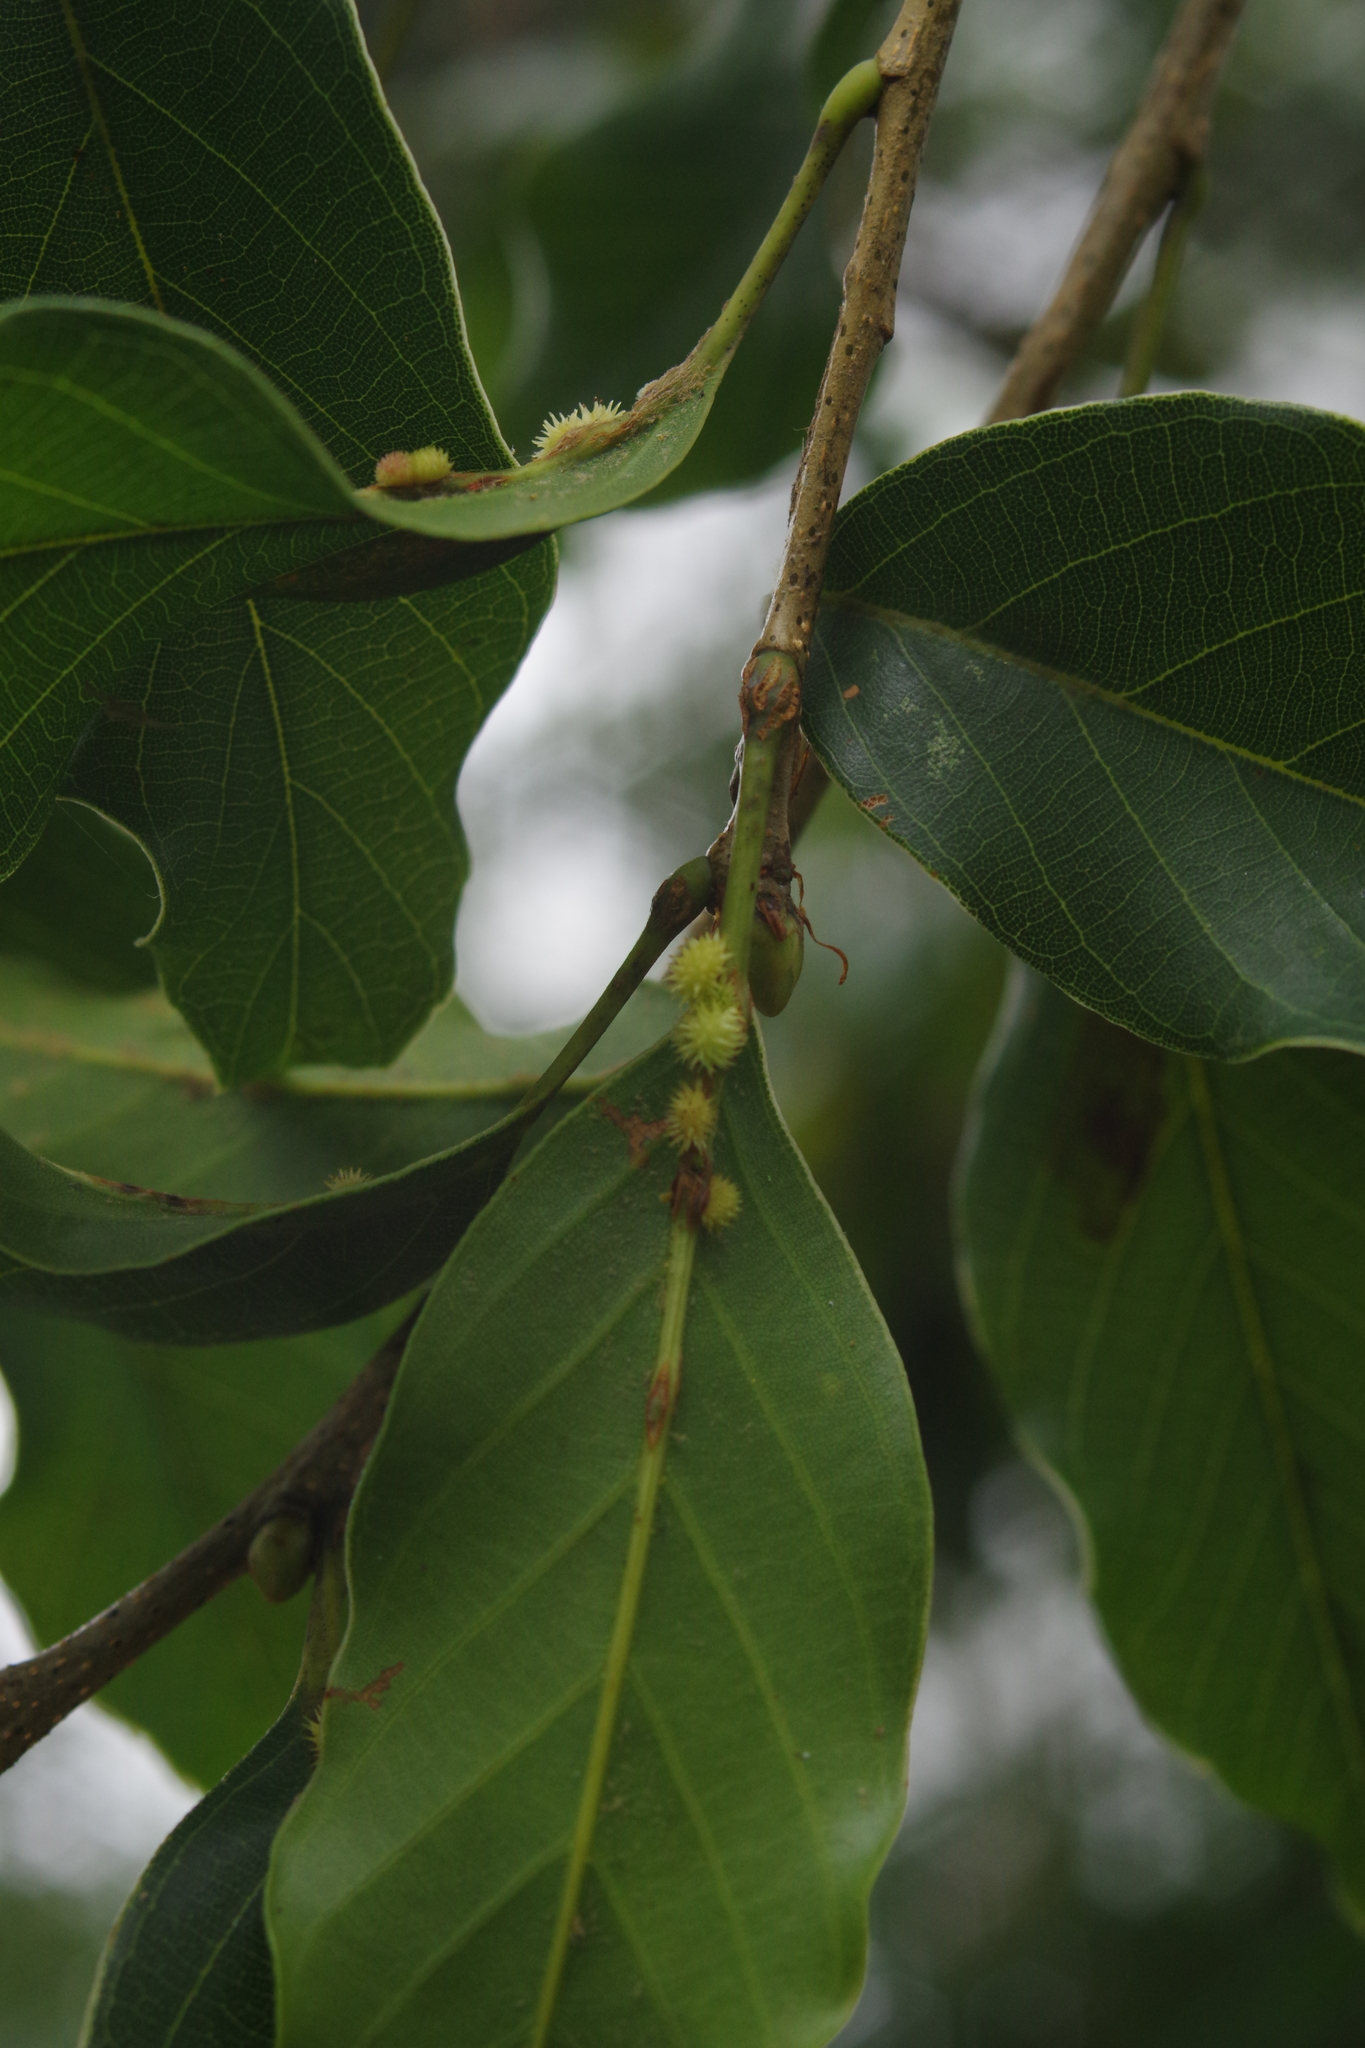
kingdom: Plantae
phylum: Tracheophyta
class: Magnoliopsida
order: Fagales
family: Fagaceae
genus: Quercus
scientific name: Quercus morii
